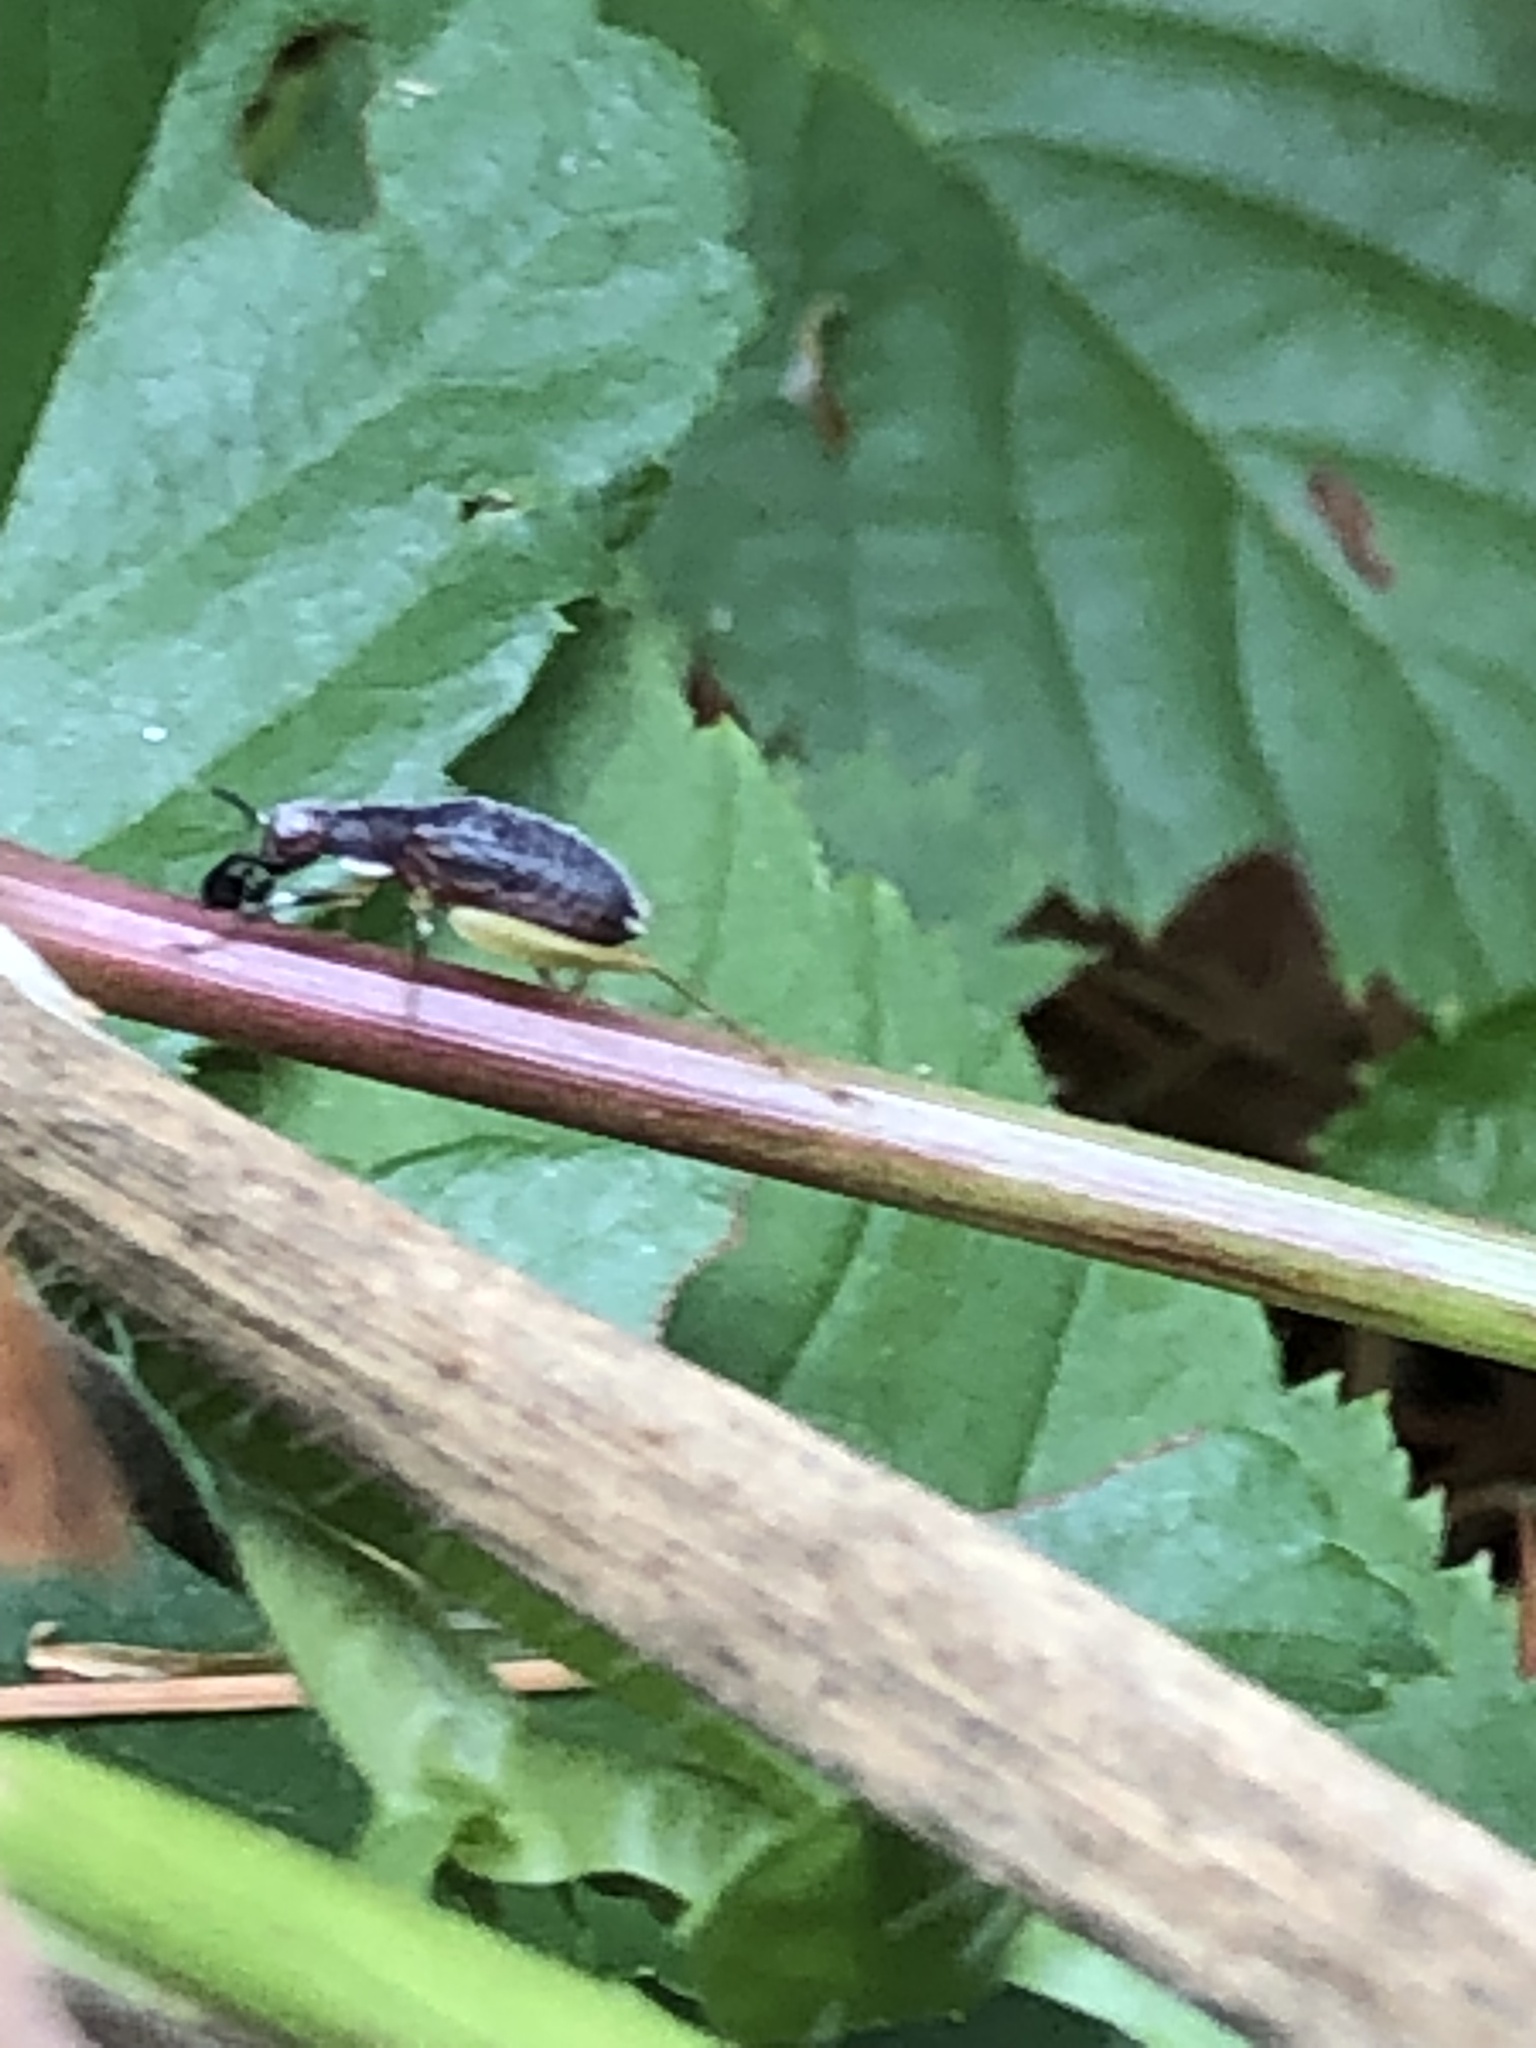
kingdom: Animalia
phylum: Arthropoda
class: Insecta
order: Orthoptera
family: Trigonidiidae
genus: Phyllopalpus
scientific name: Phyllopalpus pulchellus
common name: Handsome trig
